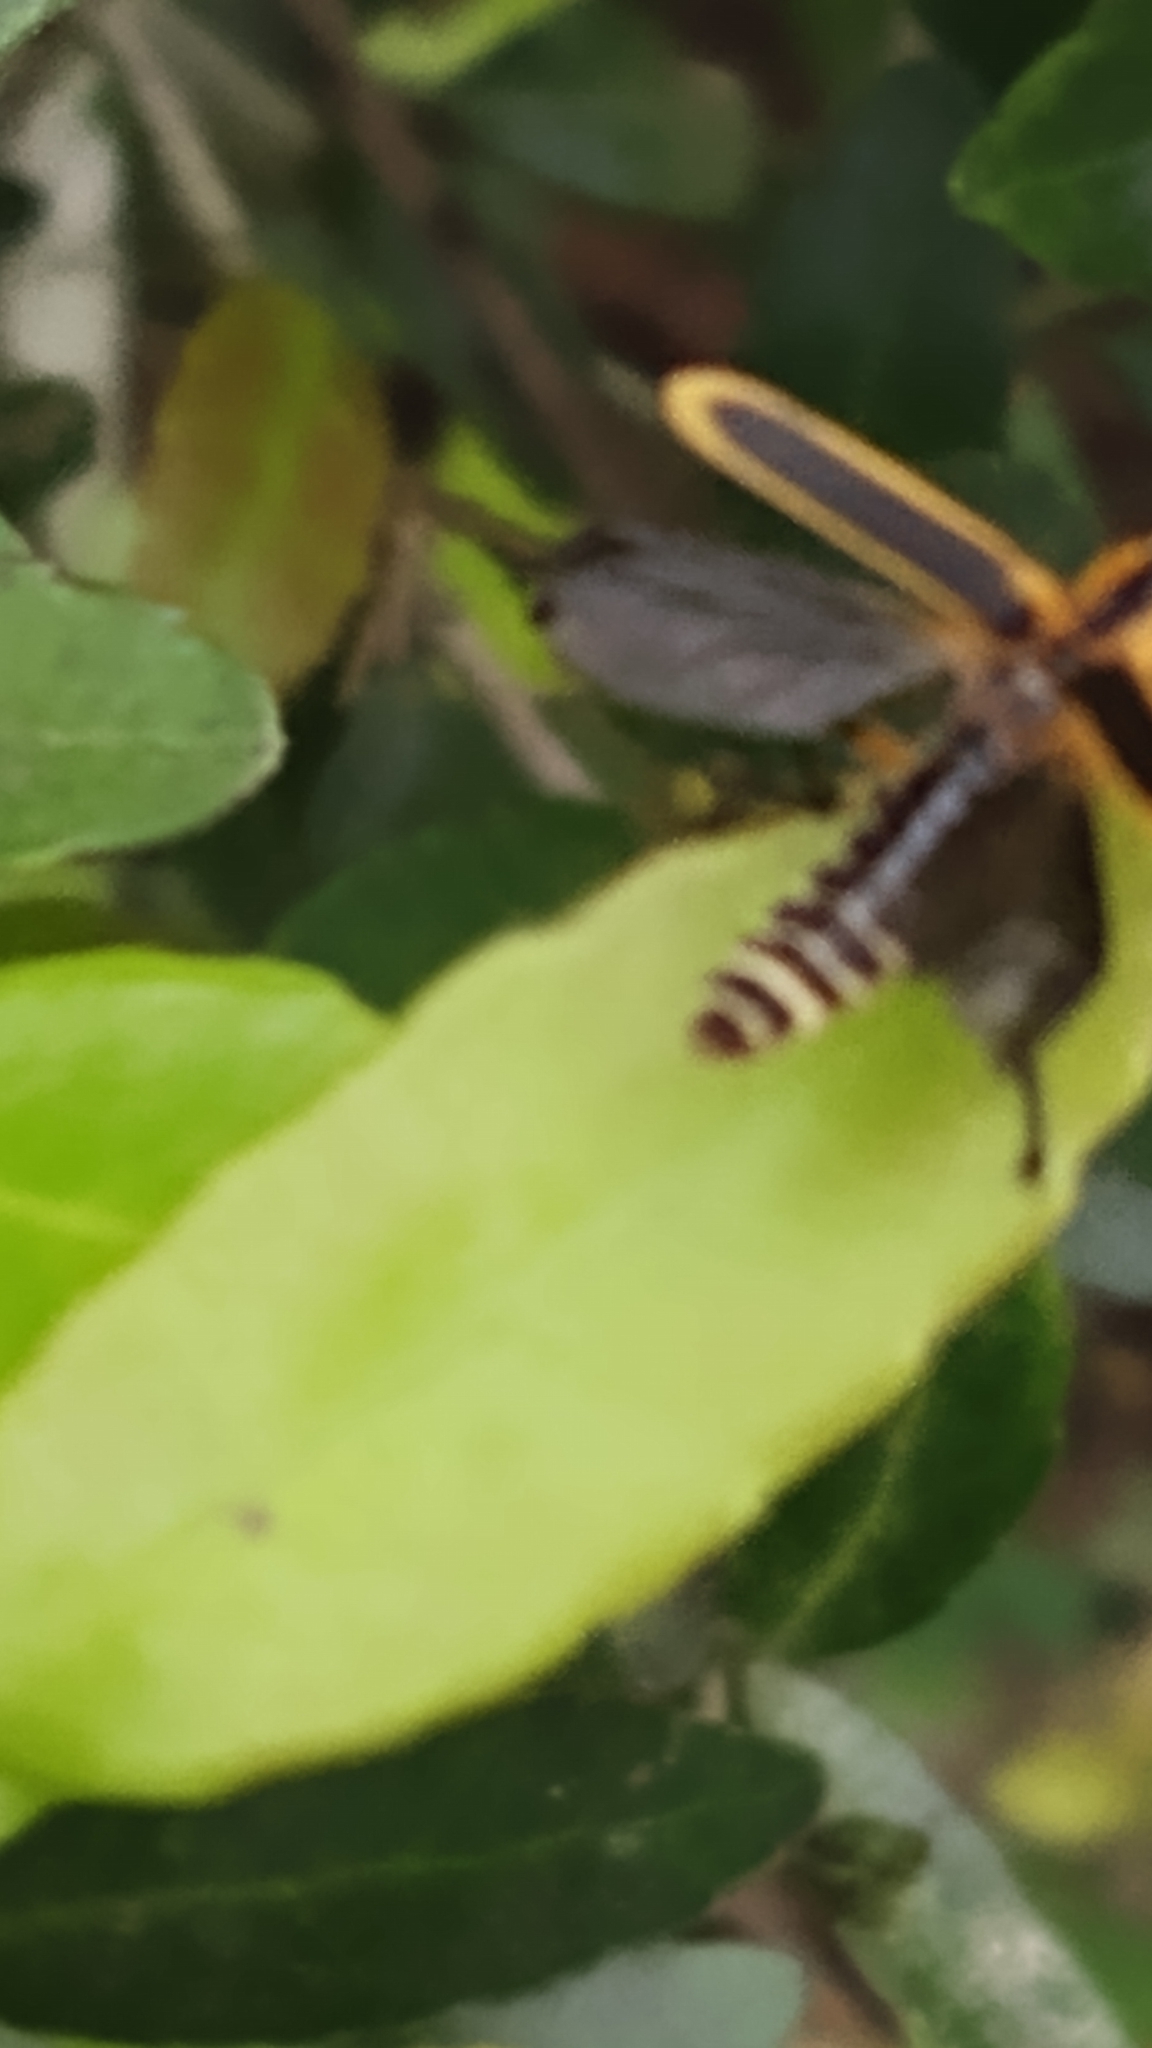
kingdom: Animalia
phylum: Arthropoda
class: Insecta
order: Coleoptera
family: Cantharidae
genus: Chauliognathus
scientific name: Chauliognathus marginatus
